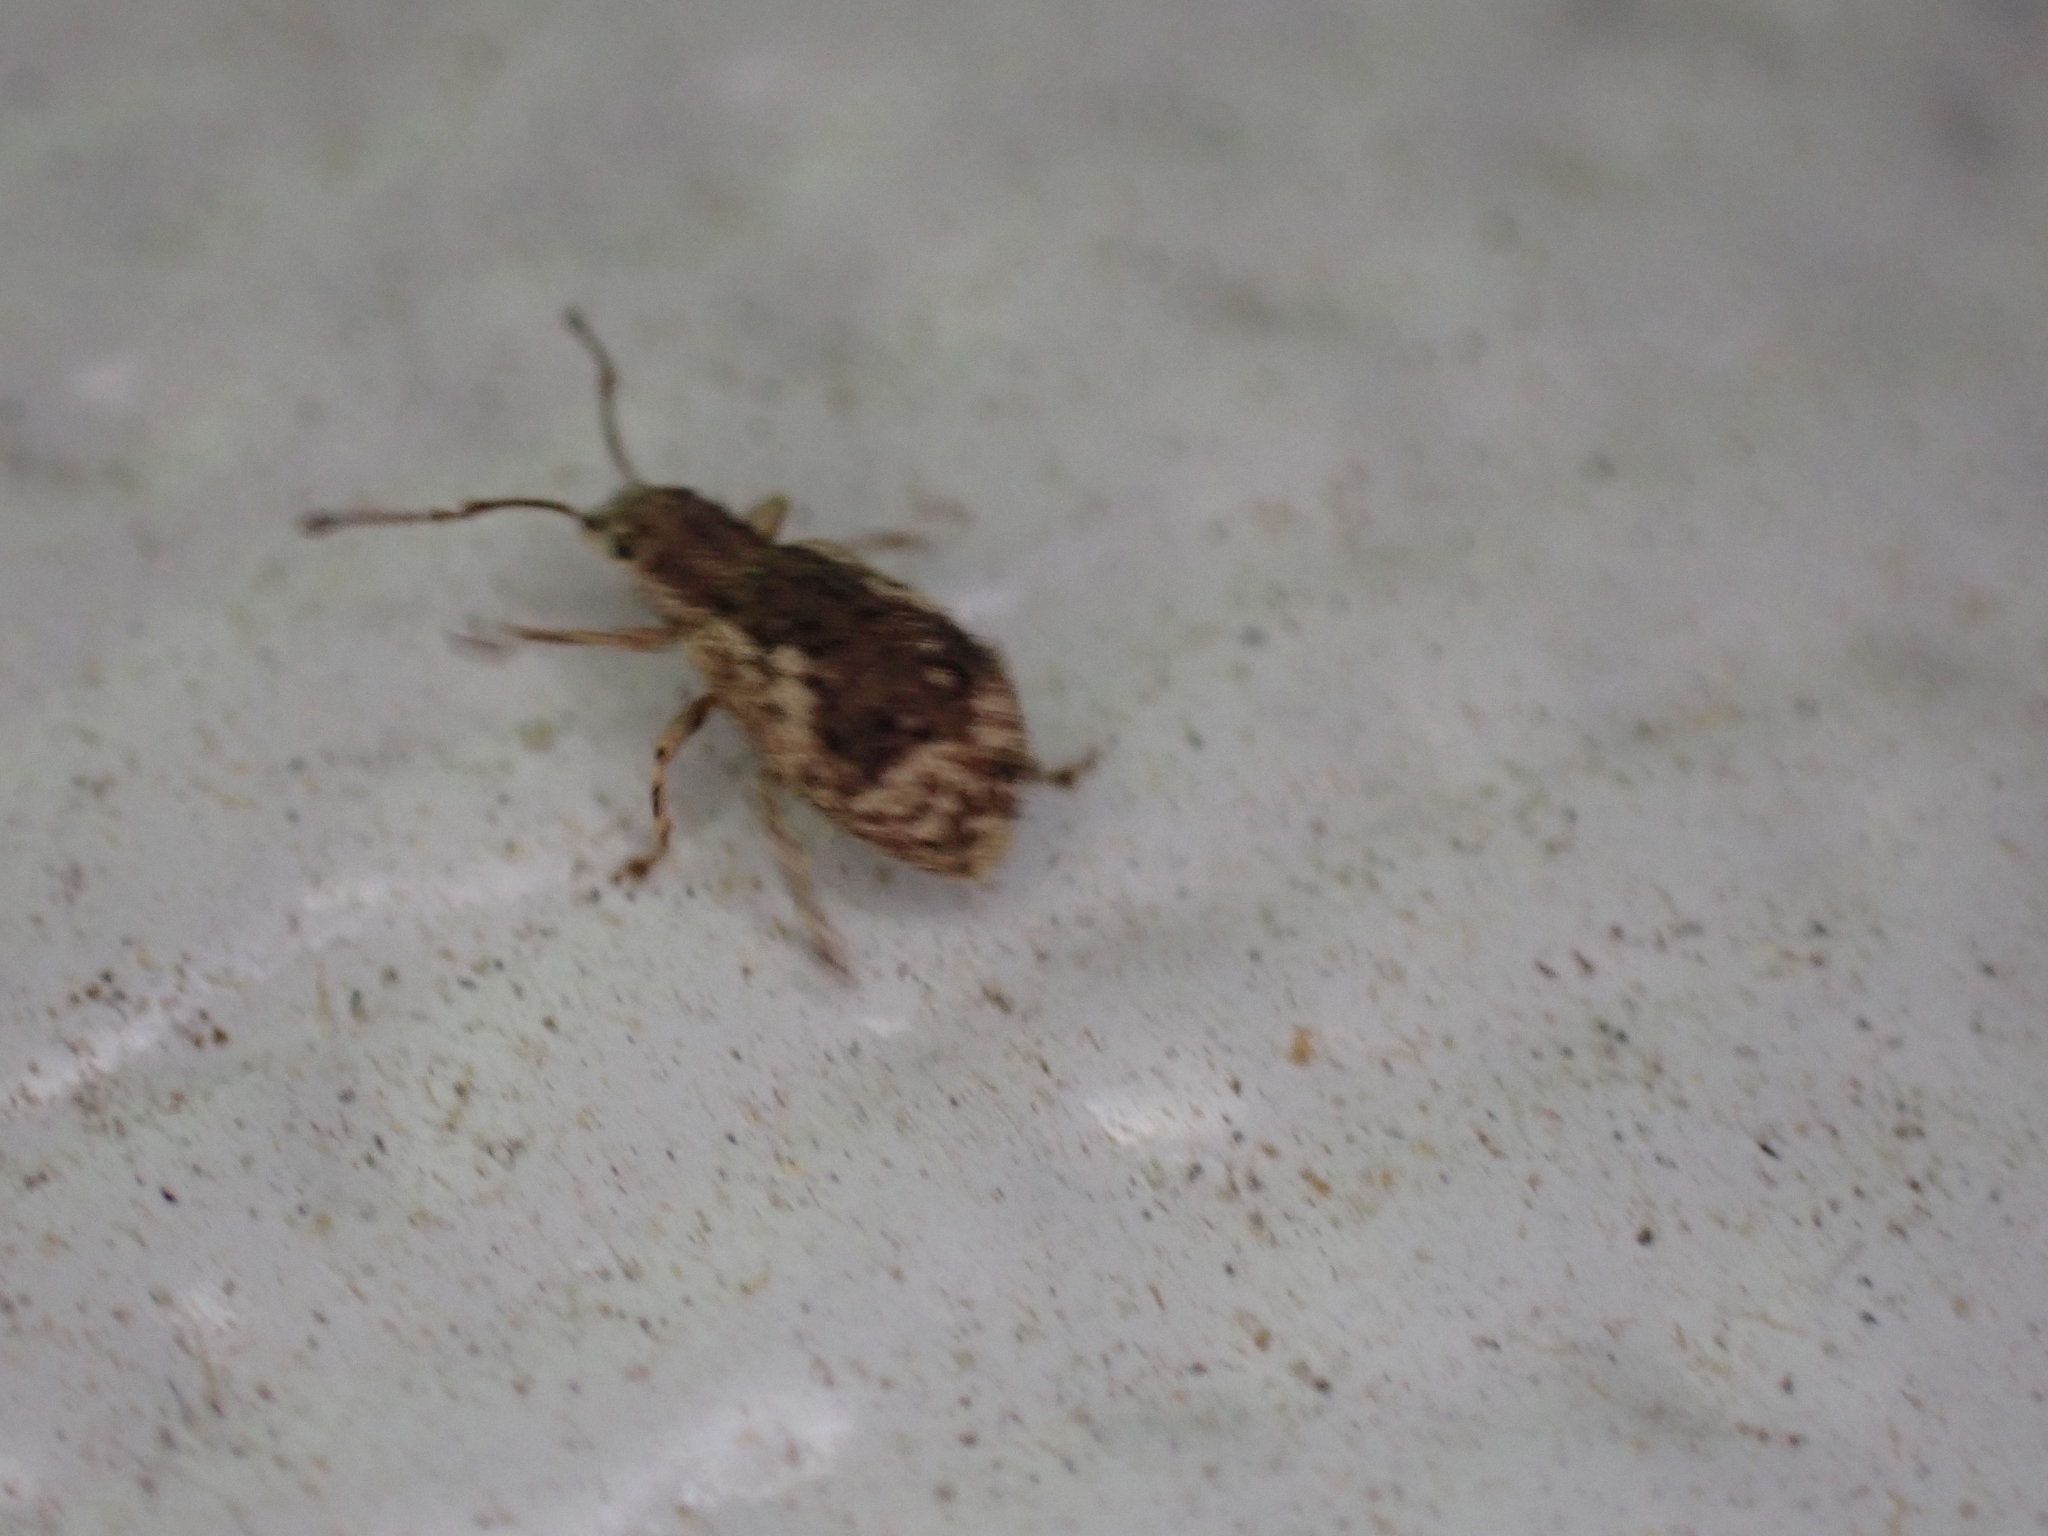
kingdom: Animalia
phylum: Arthropoda
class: Insecta
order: Coleoptera
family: Curculionidae
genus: Pseudoedophrys
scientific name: Pseudoedophrys hilleri
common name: Weevil
